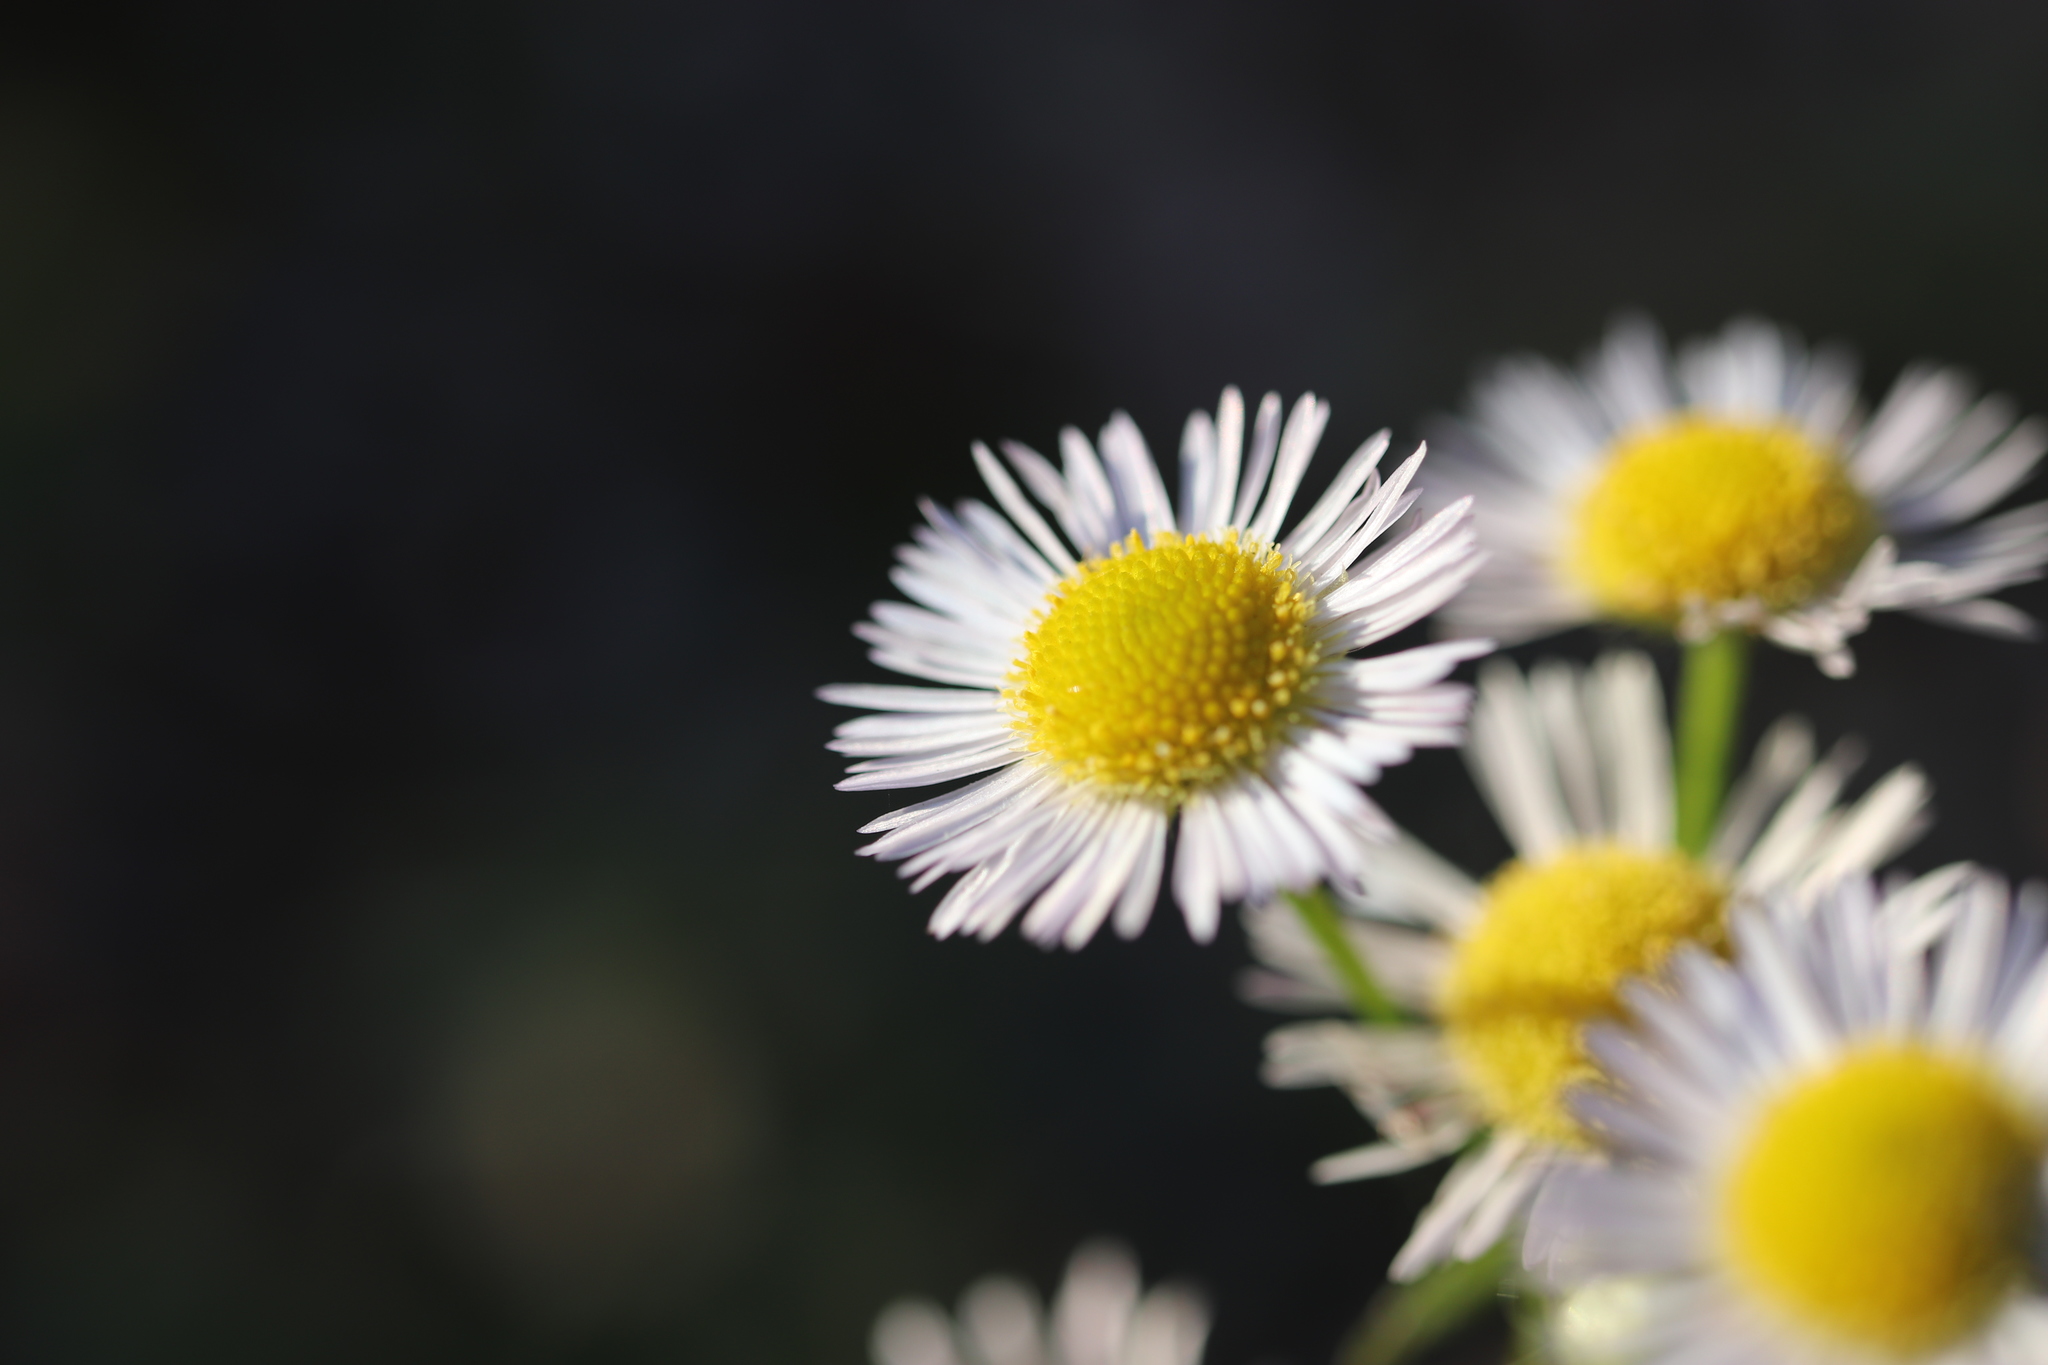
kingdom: Plantae
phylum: Tracheophyta
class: Magnoliopsida
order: Asterales
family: Asteraceae
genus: Erigeron
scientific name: Erigeron annuus
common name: Tall fleabane
